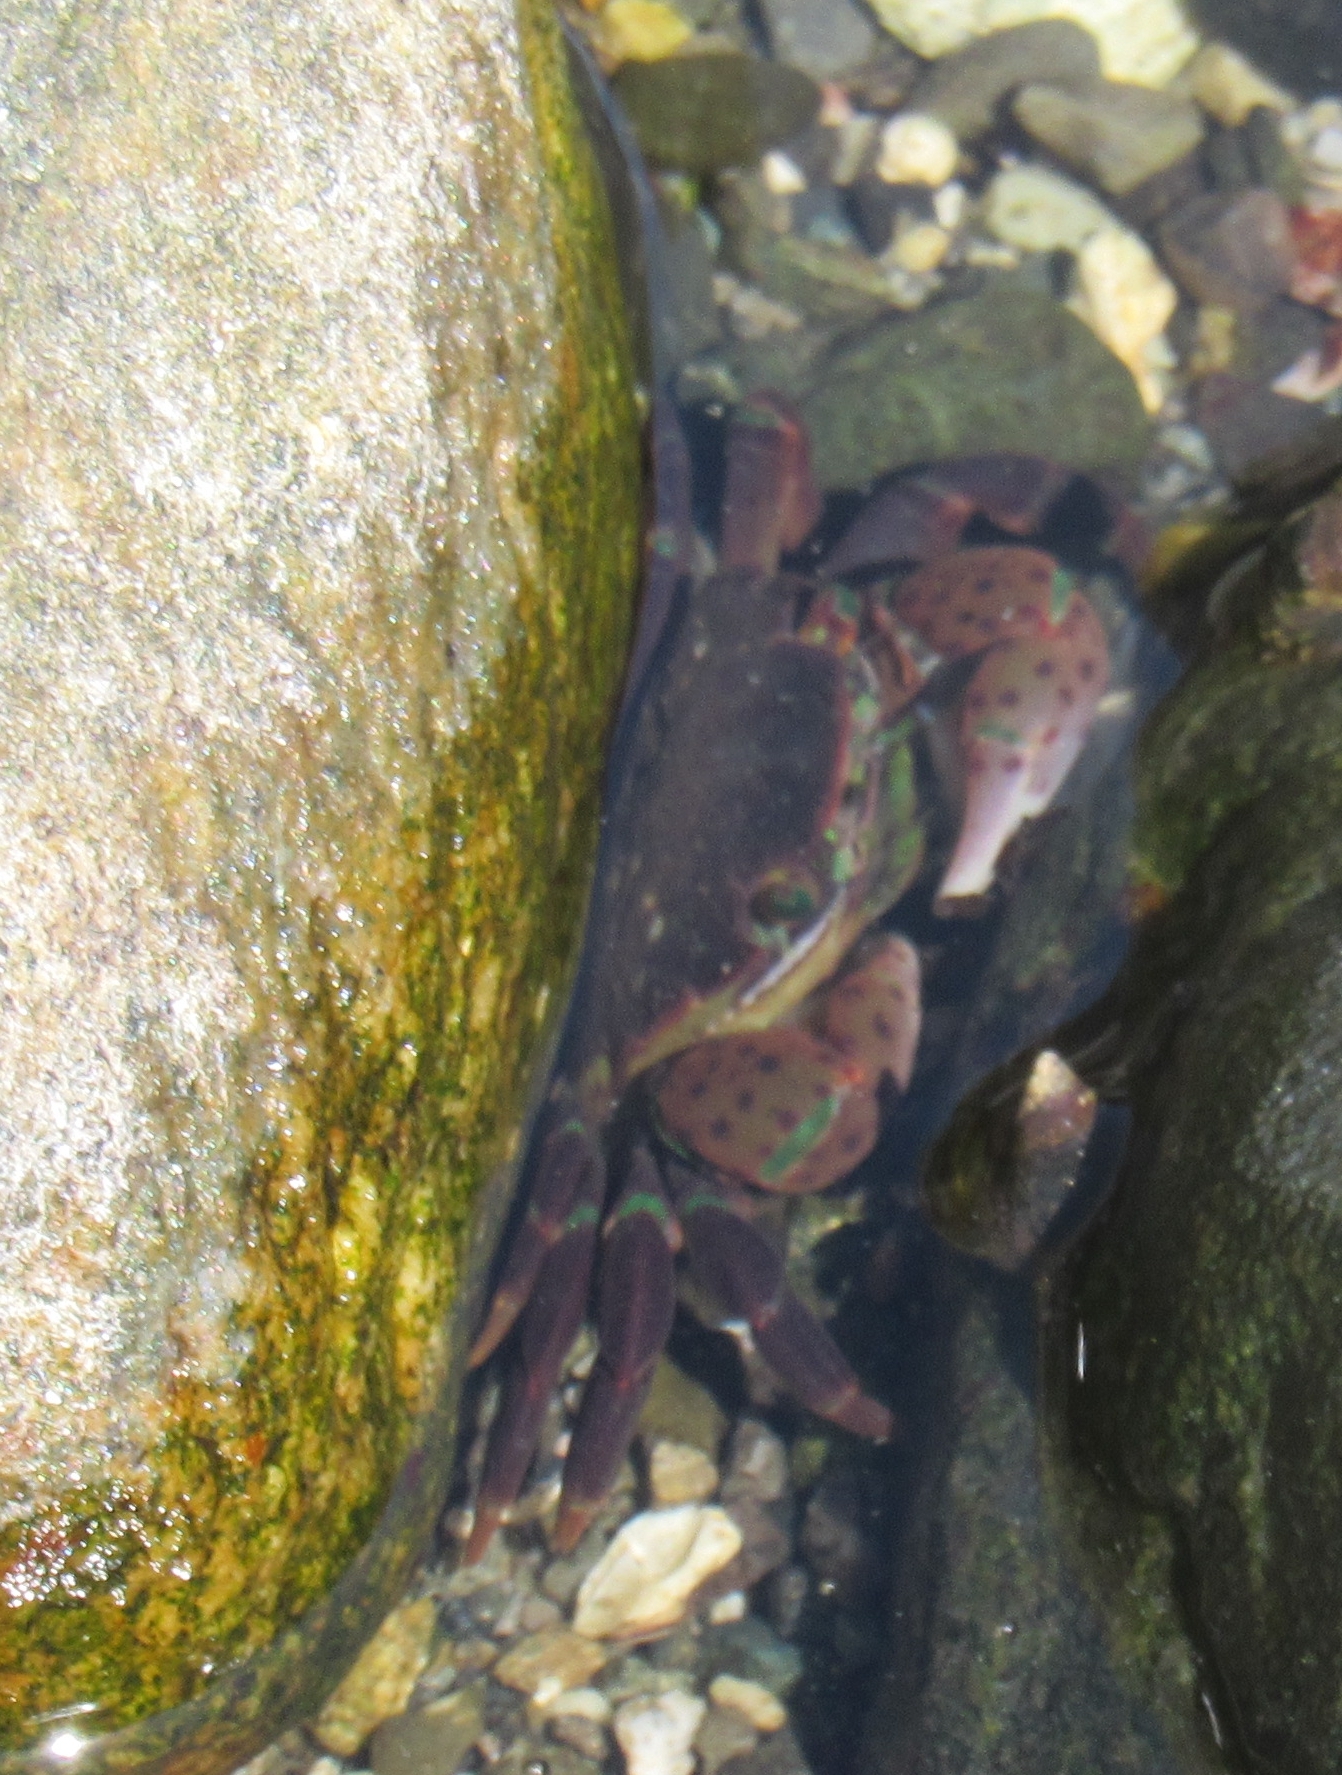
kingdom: Animalia
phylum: Arthropoda
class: Malacostraca
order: Decapoda
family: Varunidae
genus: Hemigrapsus
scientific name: Hemigrapsus nudus
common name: Purple shore crab
